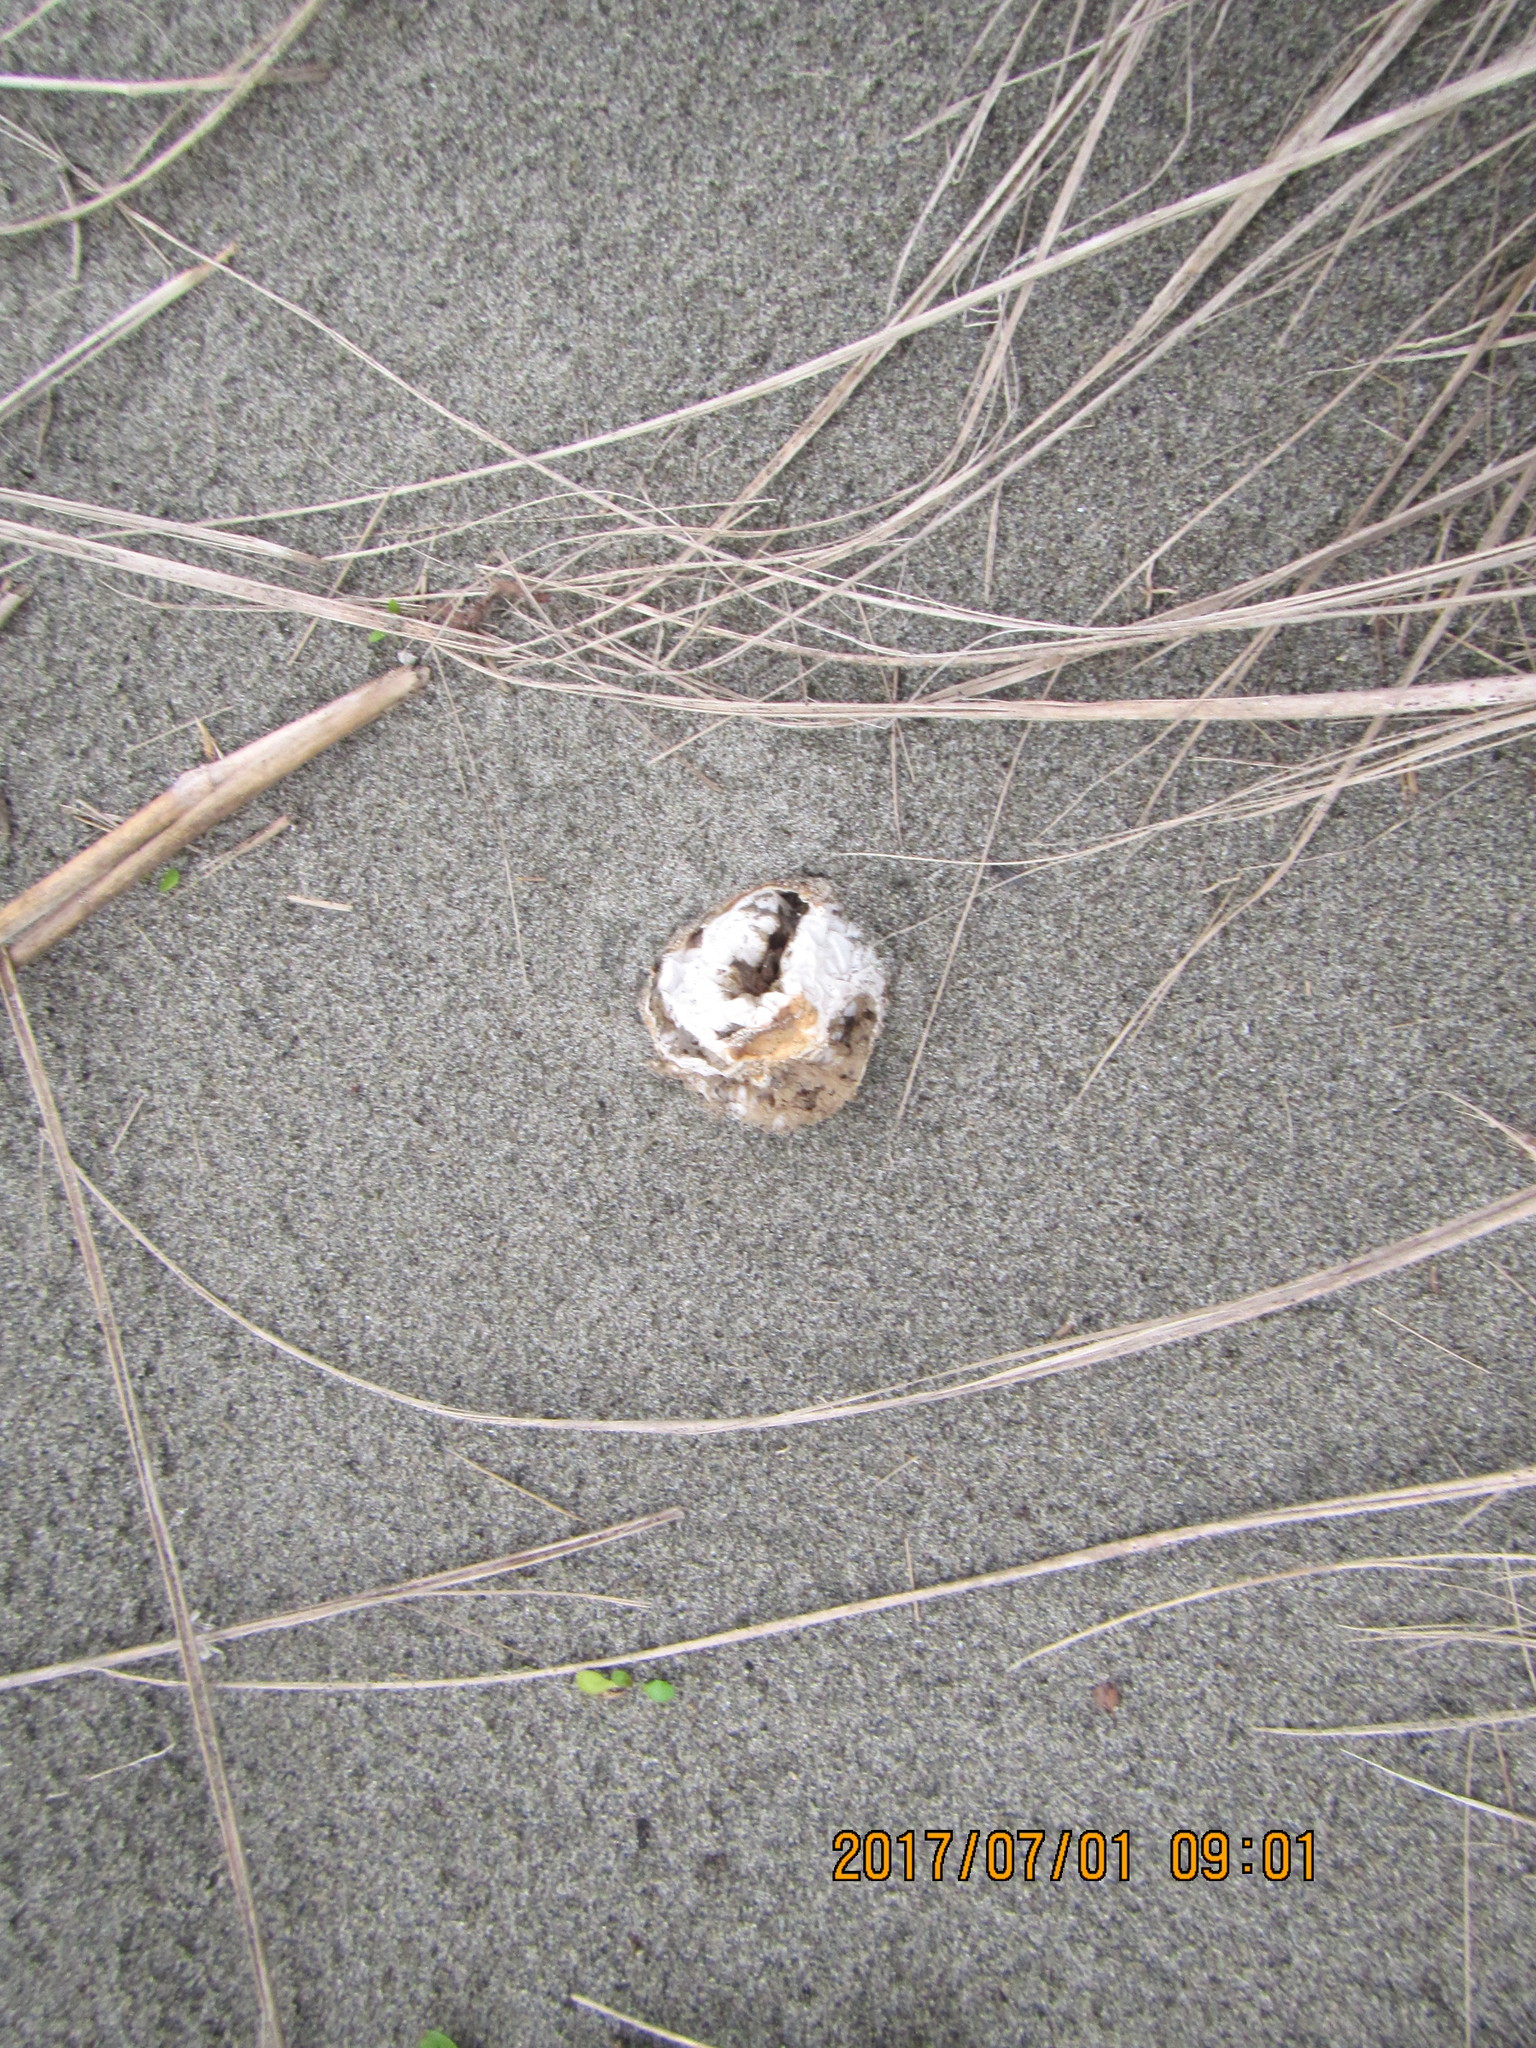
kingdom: Fungi
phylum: Basidiomycota
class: Agaricomycetes
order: Phallales
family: Phallaceae
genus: Ileodictyon
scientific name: Ileodictyon cibarium
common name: Basket fungus
